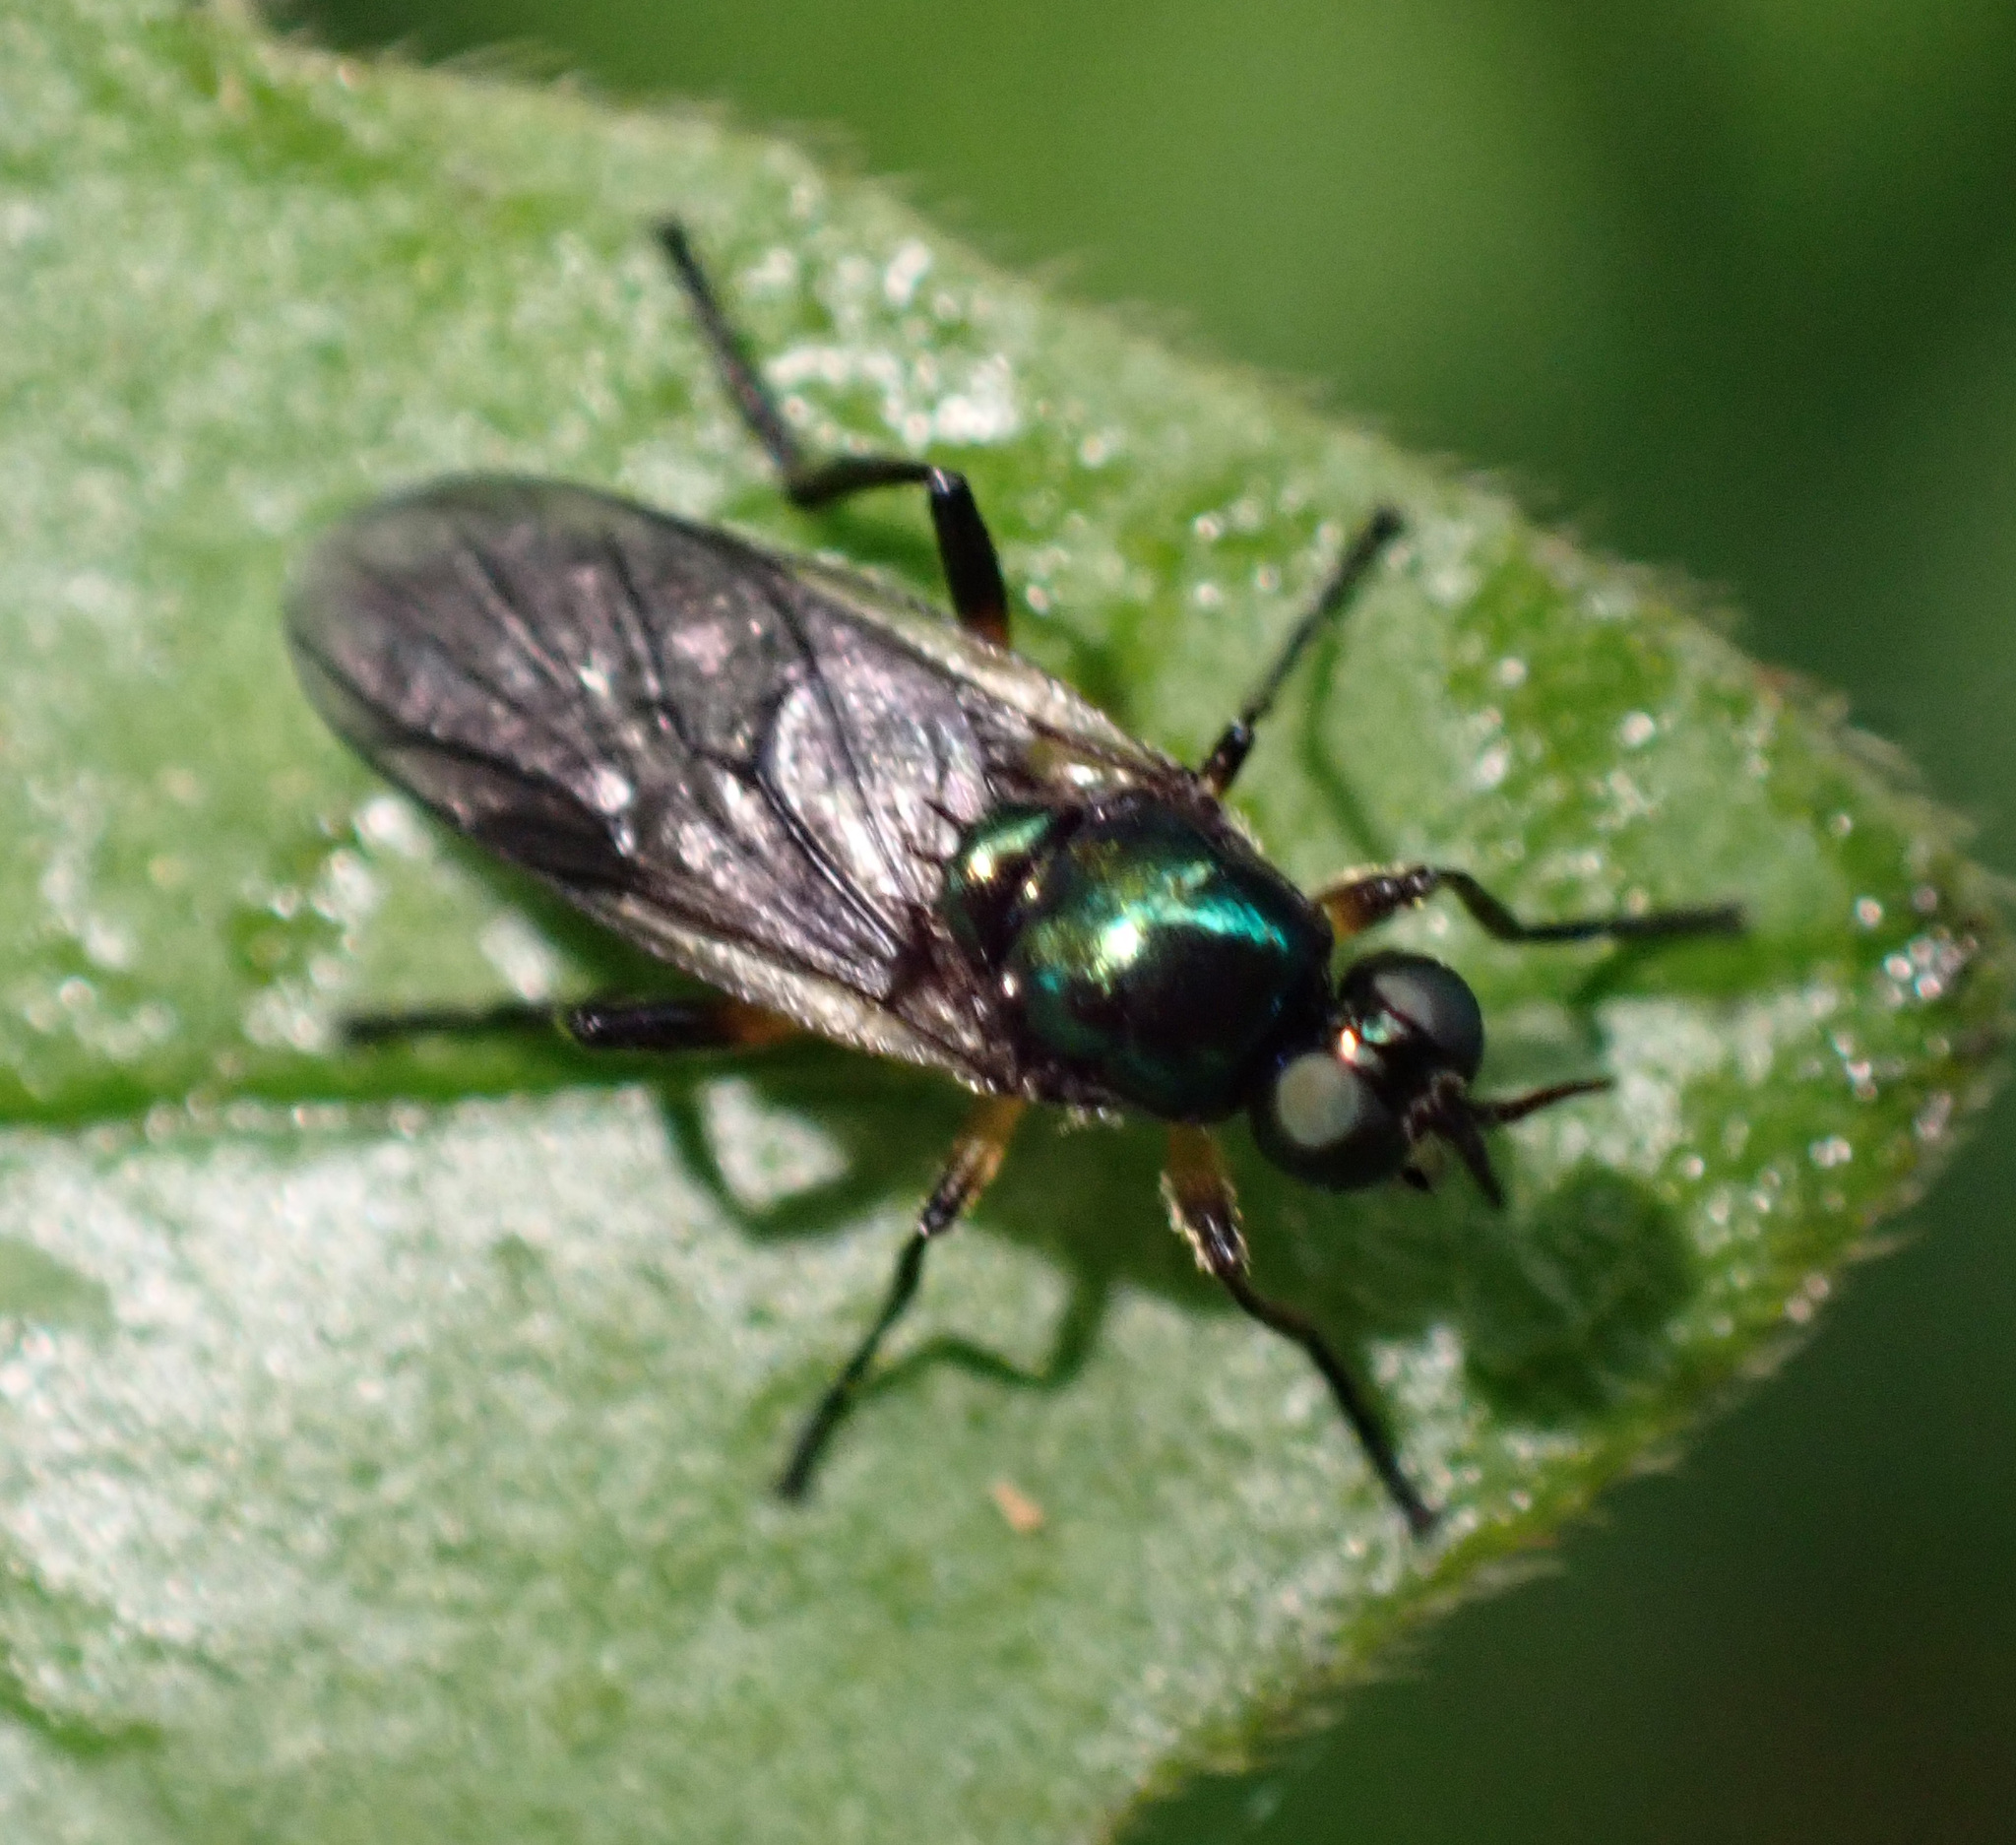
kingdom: Animalia
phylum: Arthropoda
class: Insecta
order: Diptera
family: Stratiomyidae
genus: Actina
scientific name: Actina chalybea
